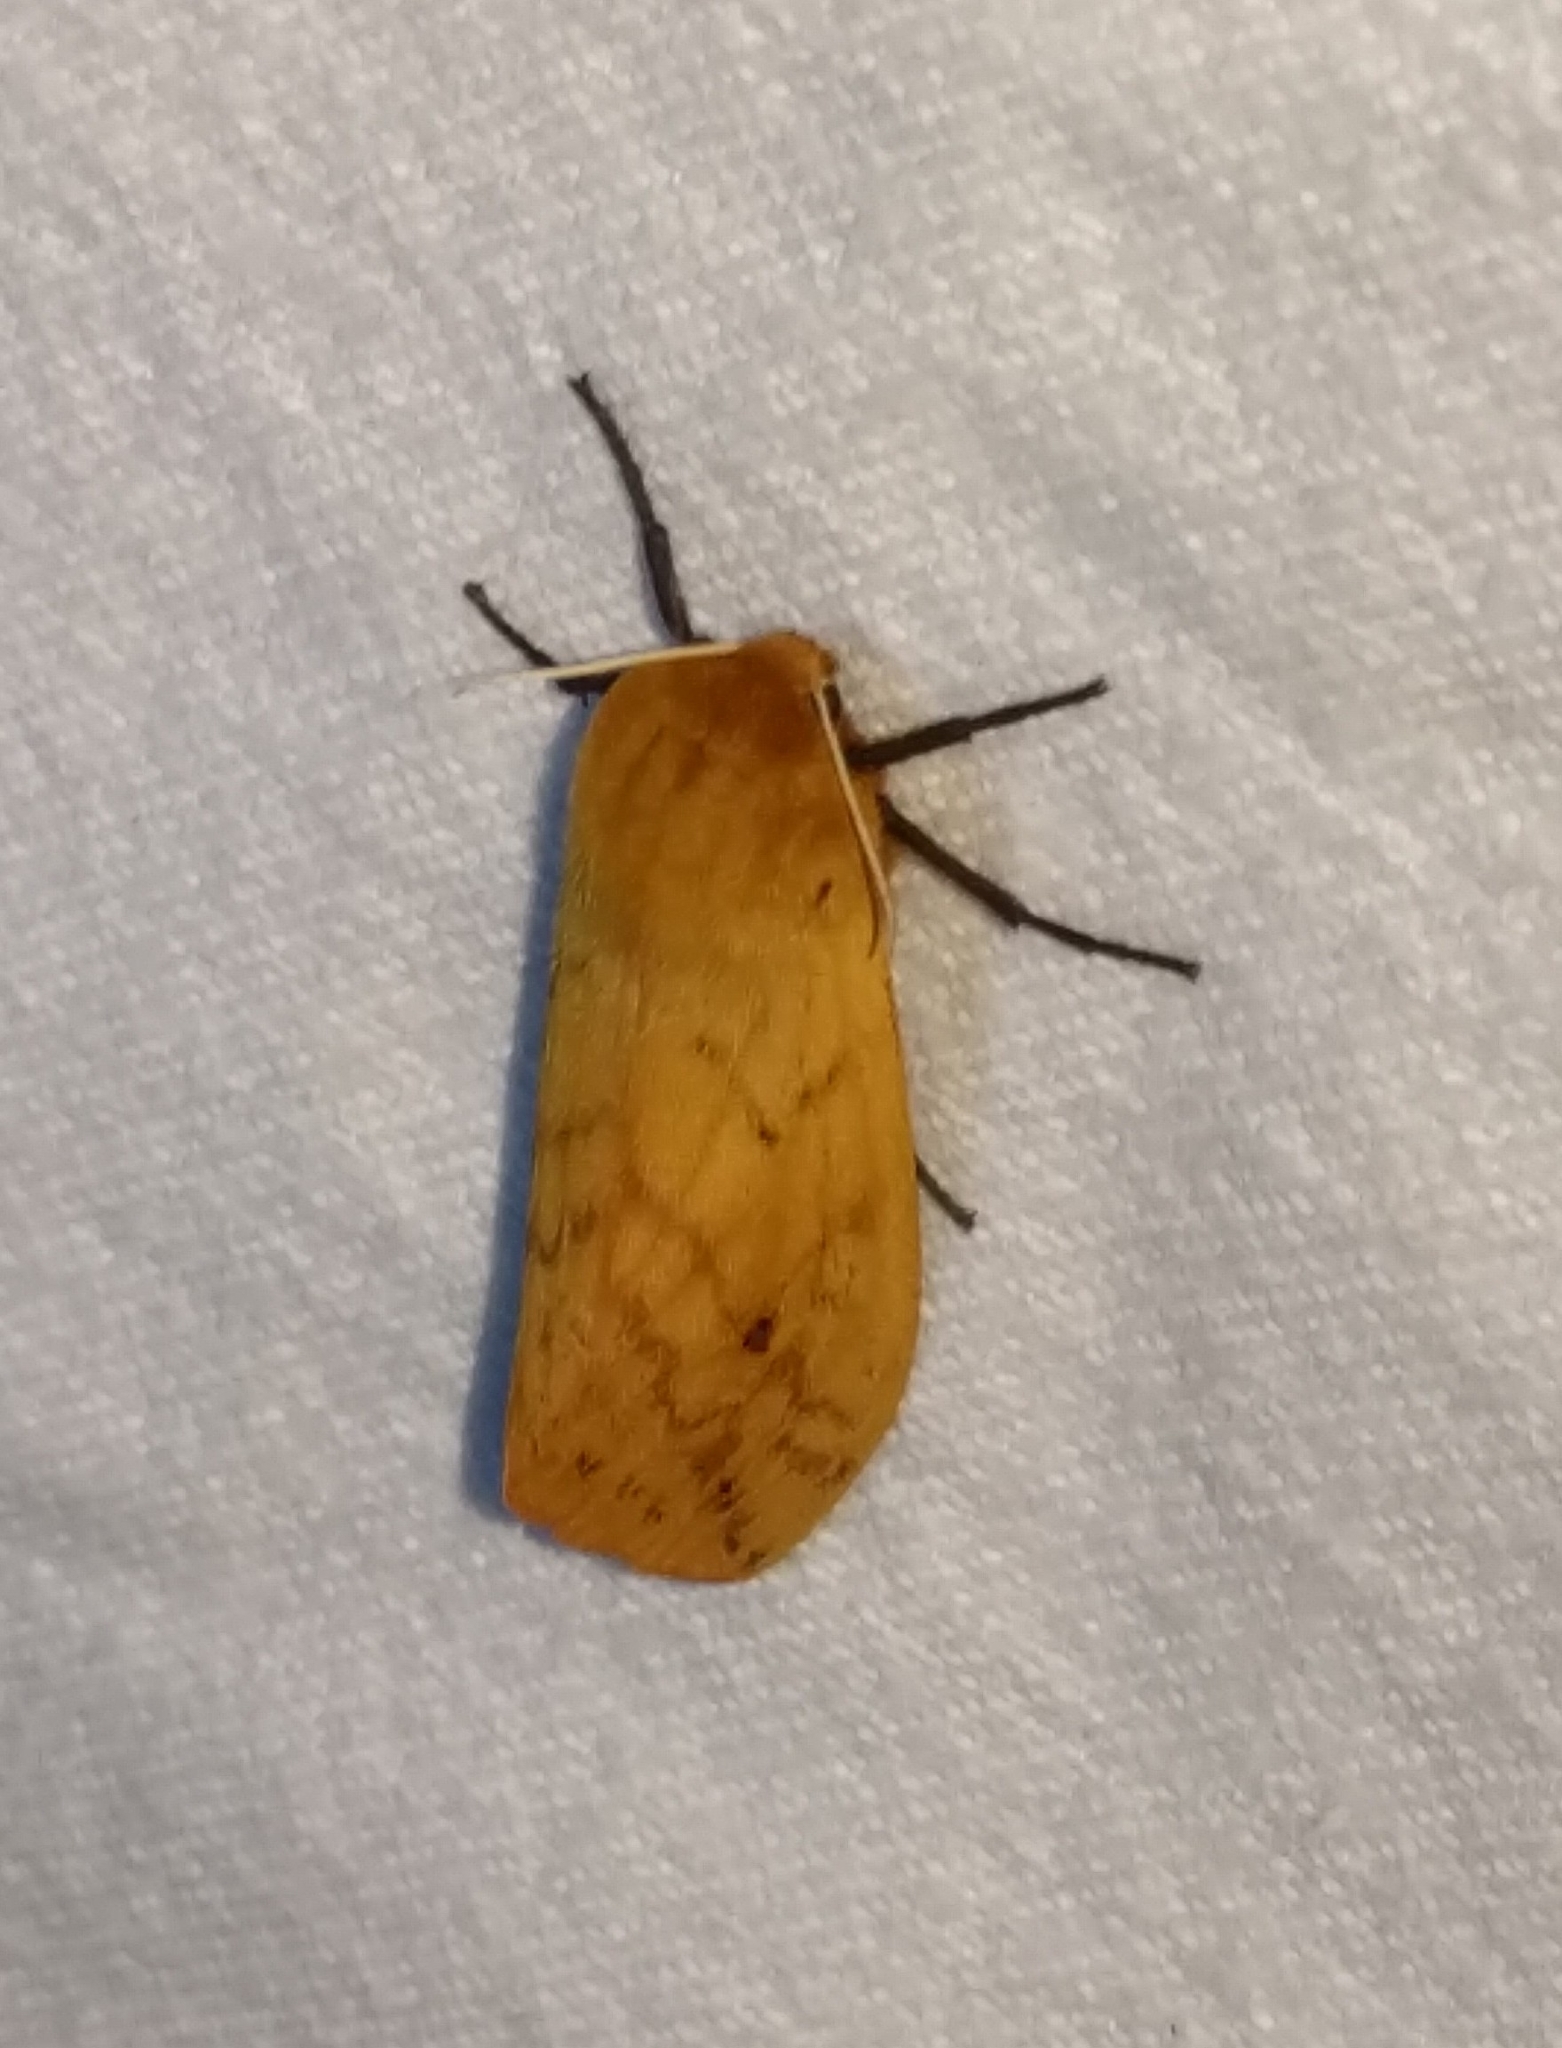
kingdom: Animalia
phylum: Arthropoda
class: Insecta
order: Lepidoptera
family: Erebidae
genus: Pyrrharctia
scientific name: Pyrrharctia isabella
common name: Isabella tiger moth
